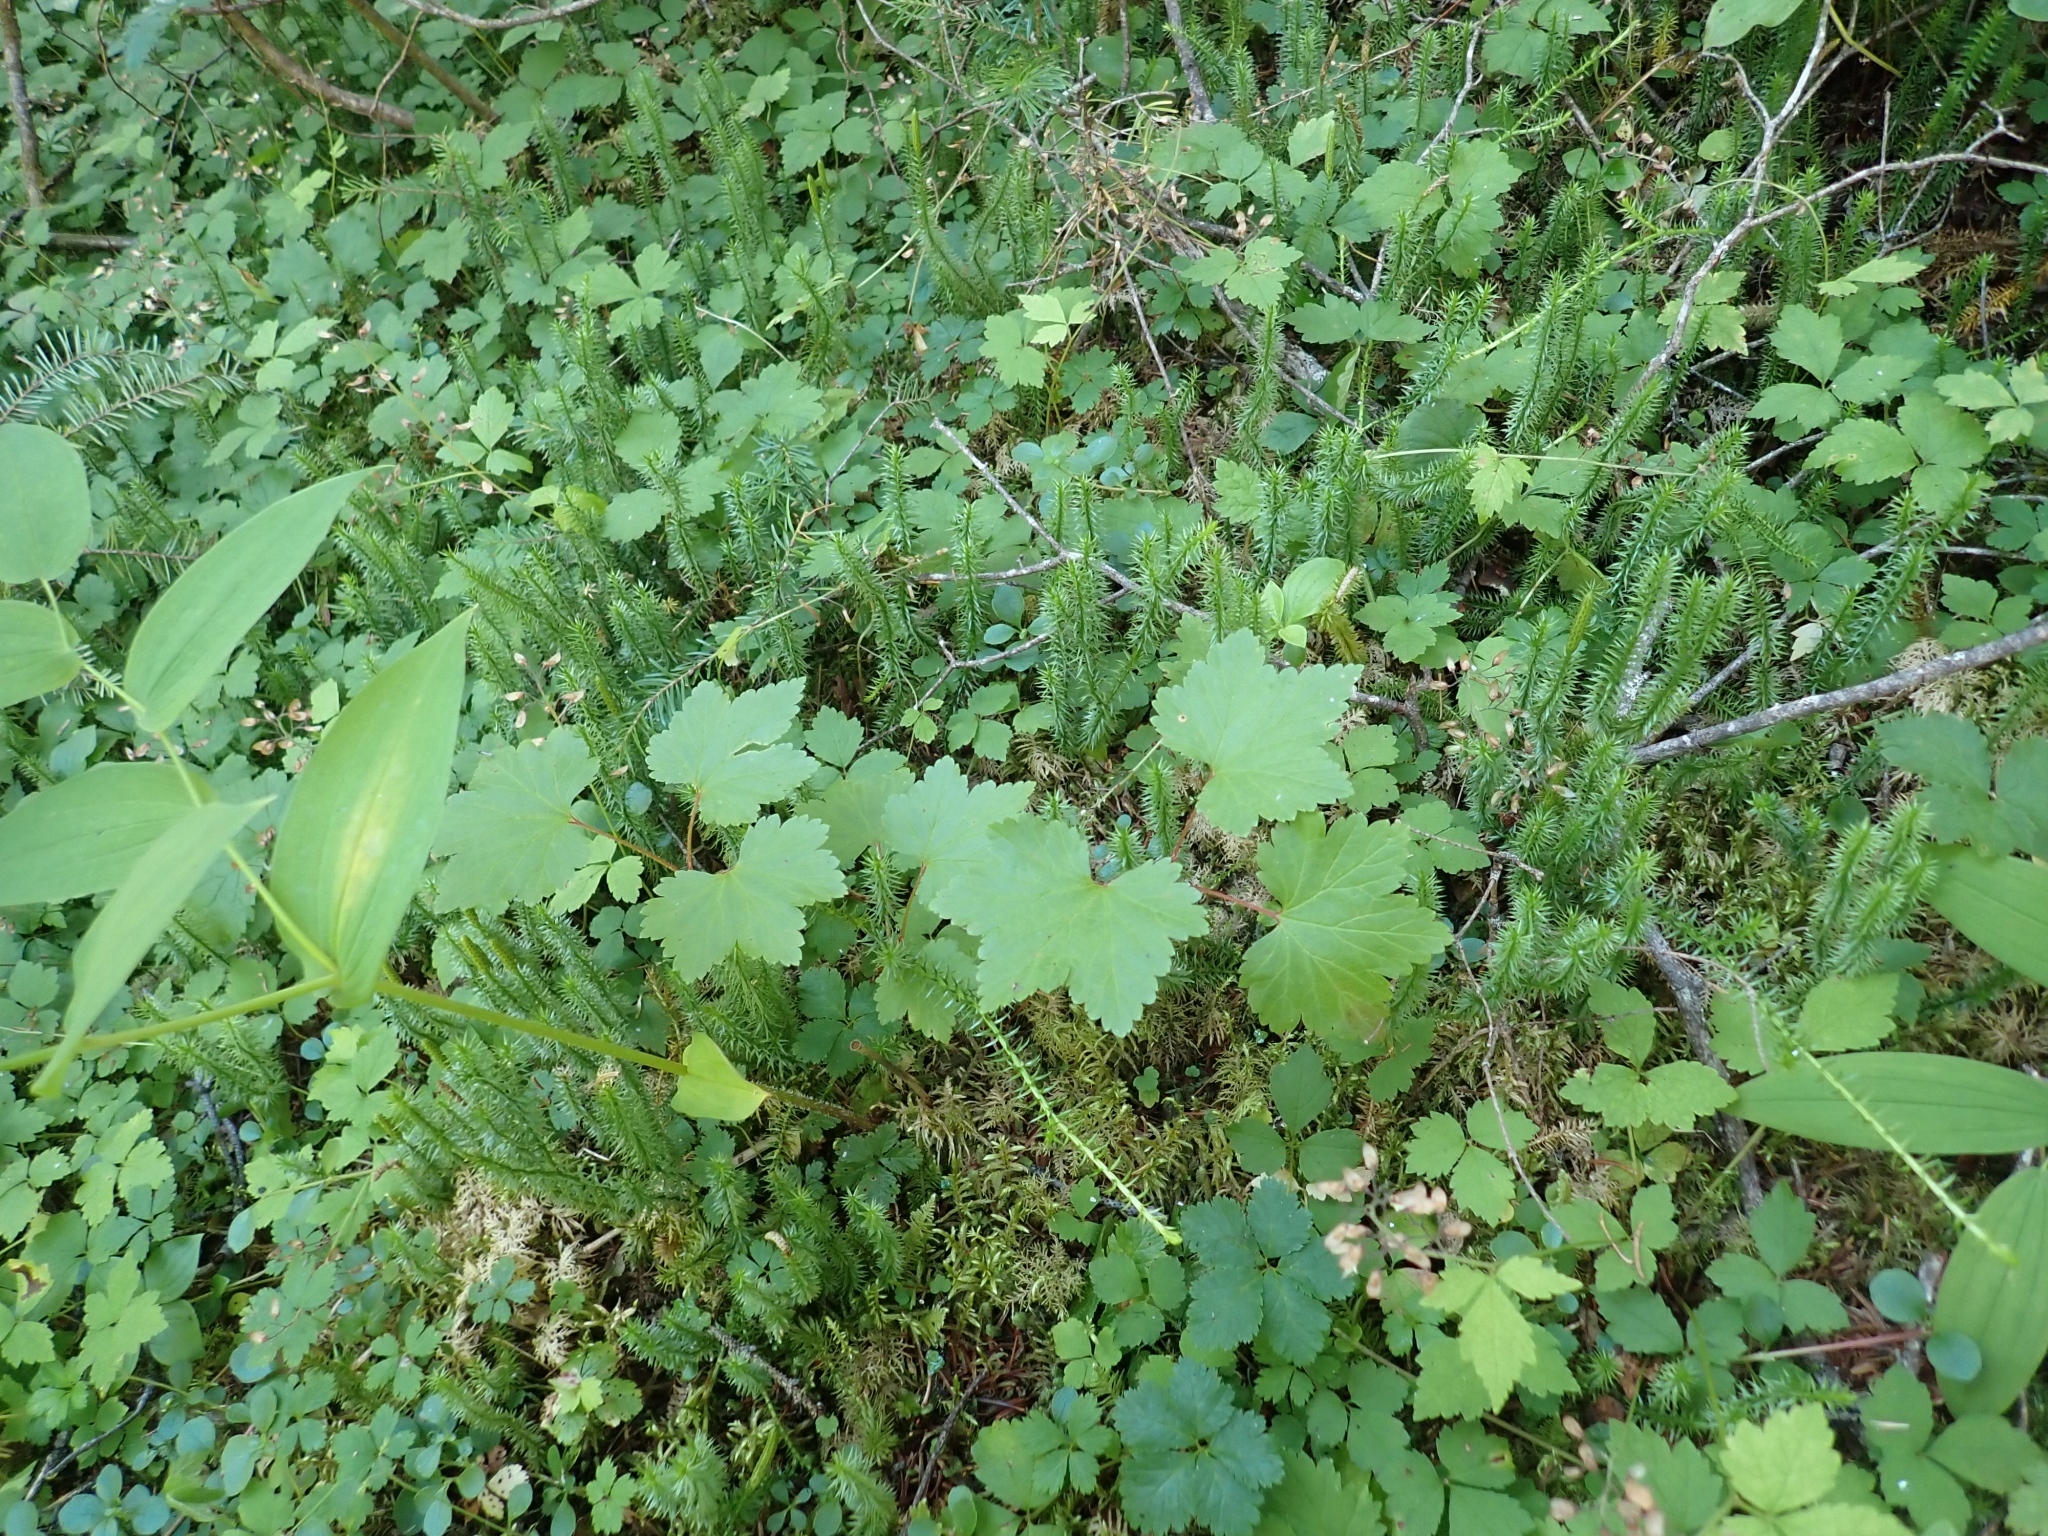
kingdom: Plantae
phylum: Tracheophyta
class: Magnoliopsida
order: Saxifragales
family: Grossulariaceae
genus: Ribes
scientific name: Ribes triste
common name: Swamp red currant
